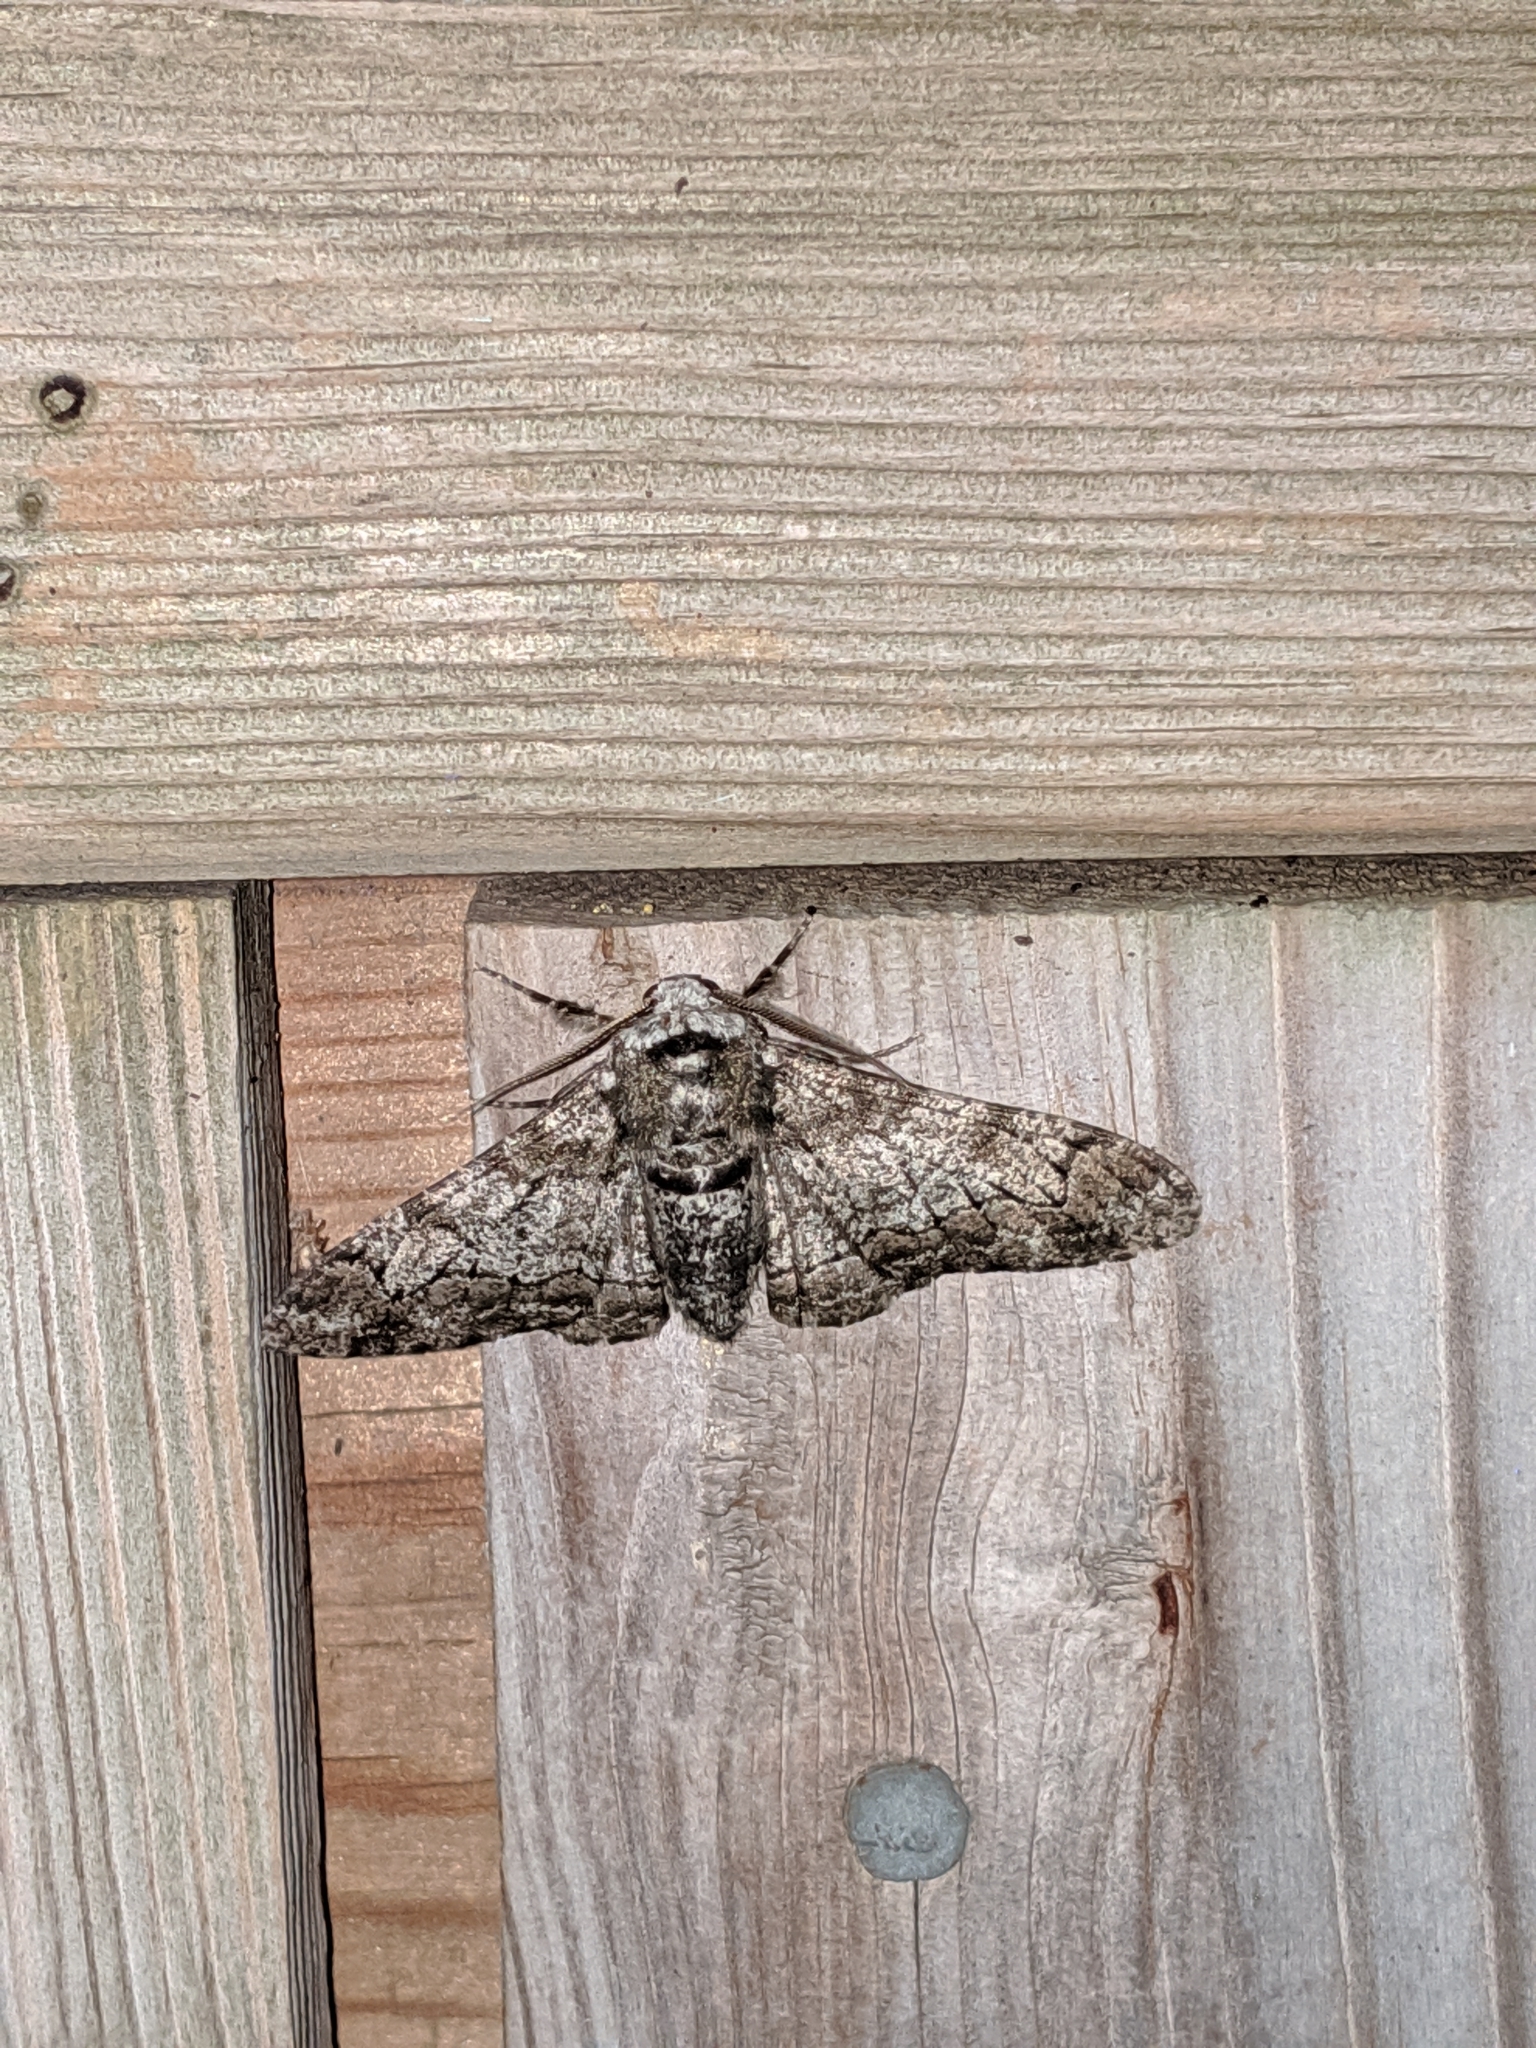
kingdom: Animalia
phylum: Arthropoda
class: Insecta
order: Lepidoptera
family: Geometridae
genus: Biston
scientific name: Biston betularia
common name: Peppered moth
